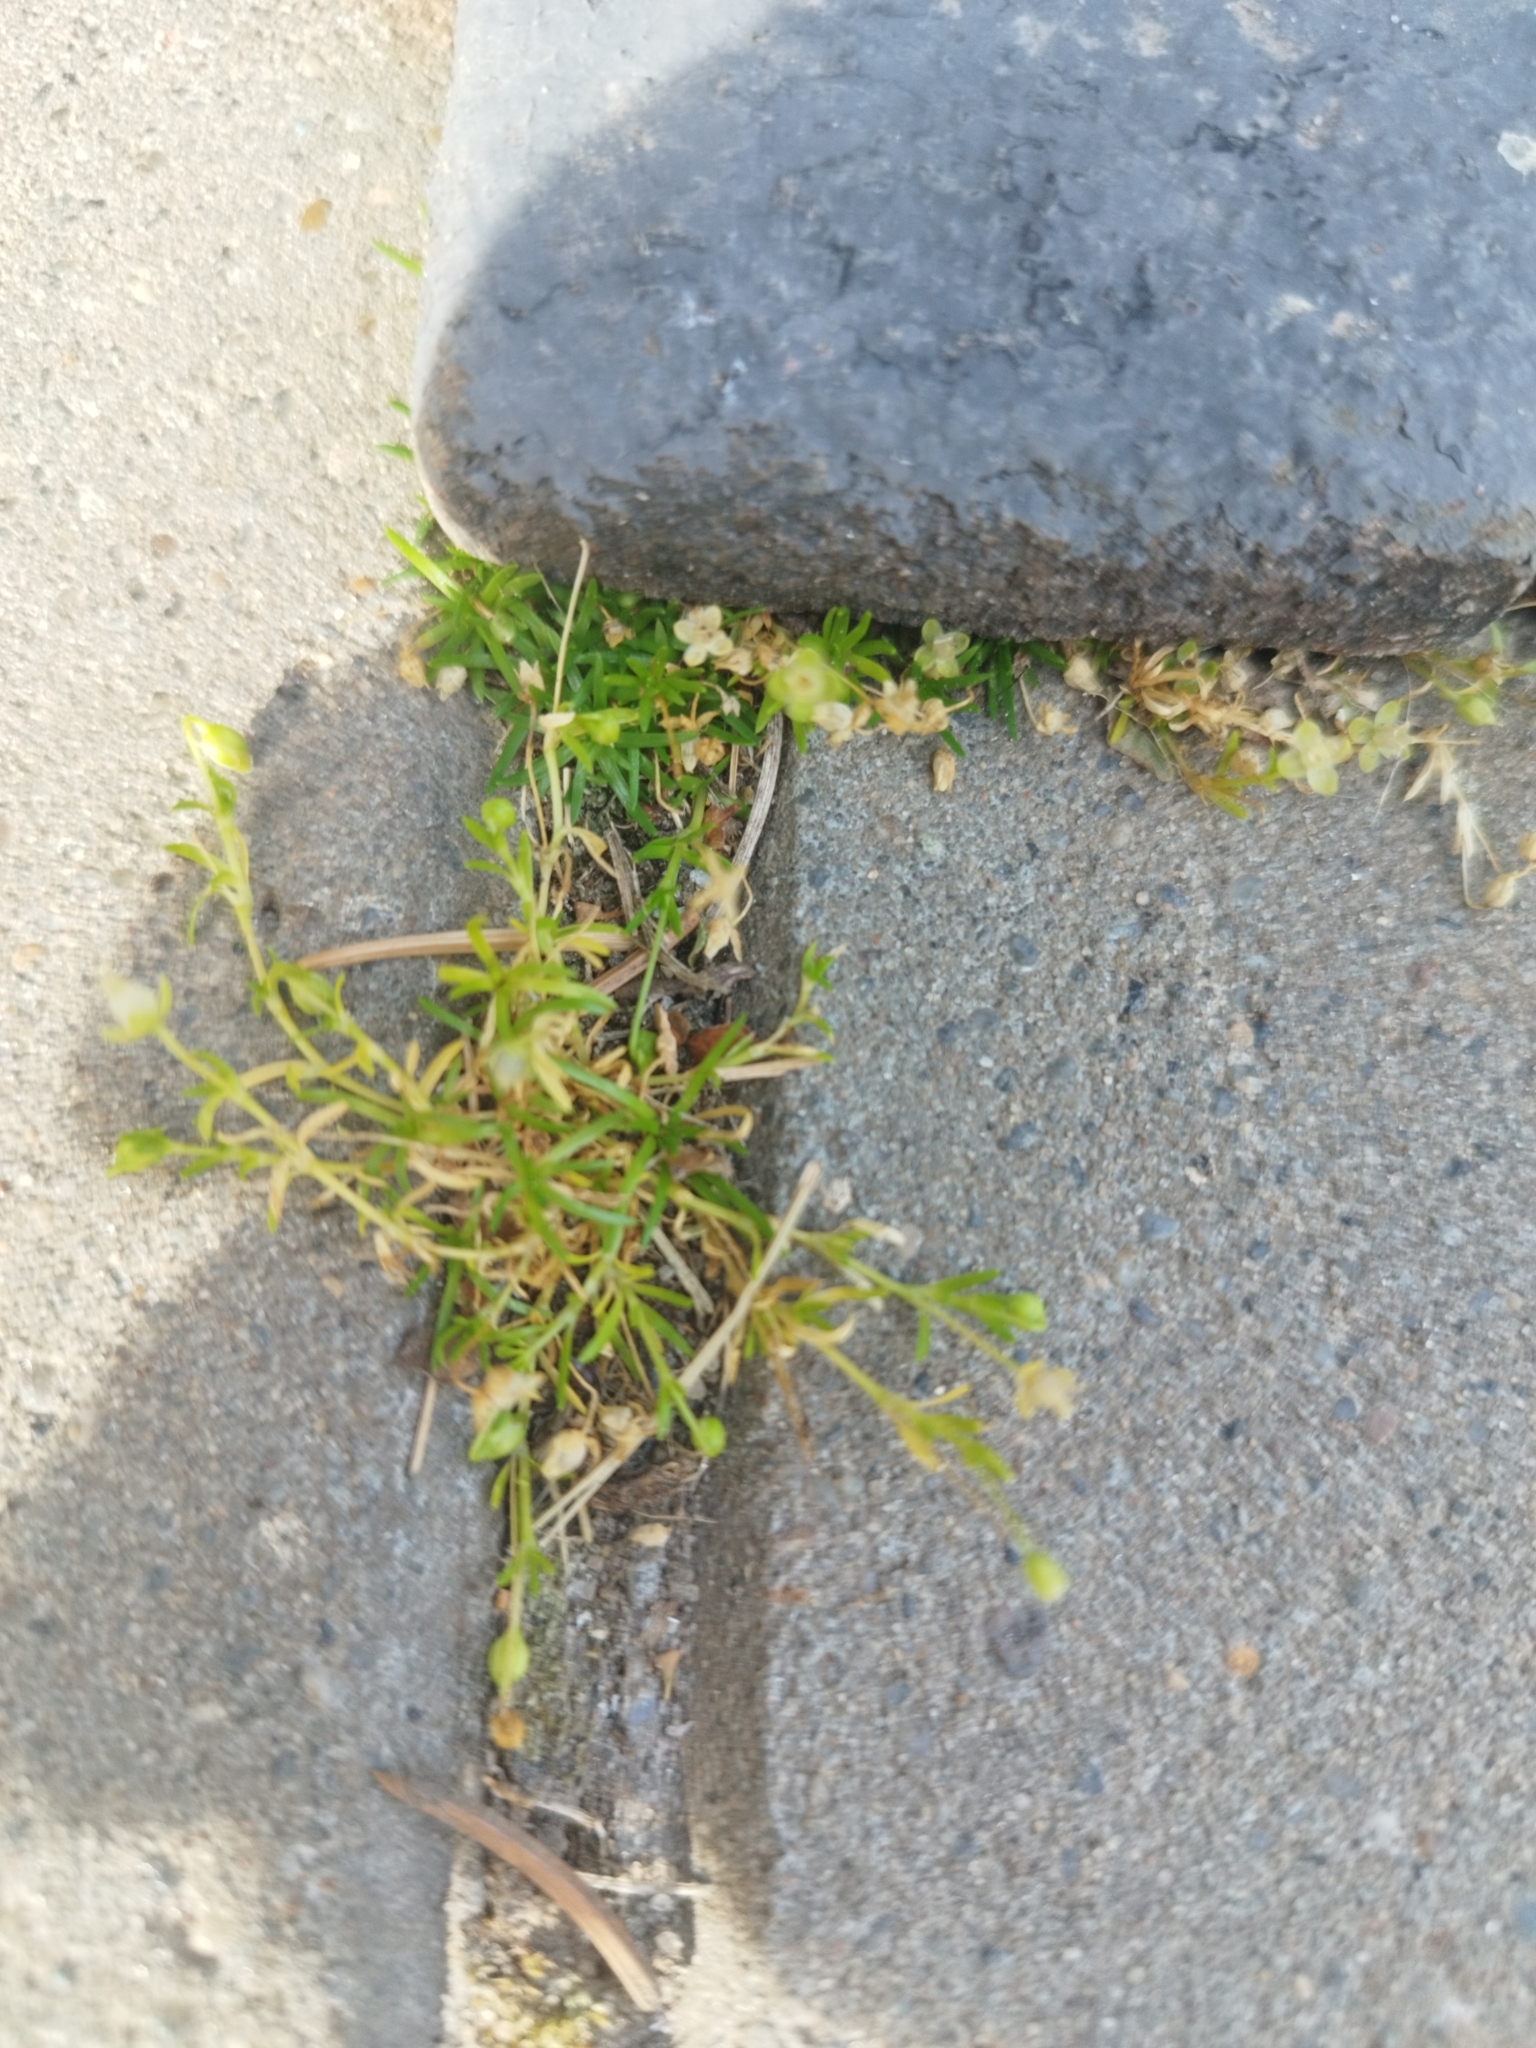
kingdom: Plantae
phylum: Tracheophyta
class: Magnoliopsida
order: Caryophyllales
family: Caryophyllaceae
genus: Sagina
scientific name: Sagina procumbens
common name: Procumbent pearlwort
